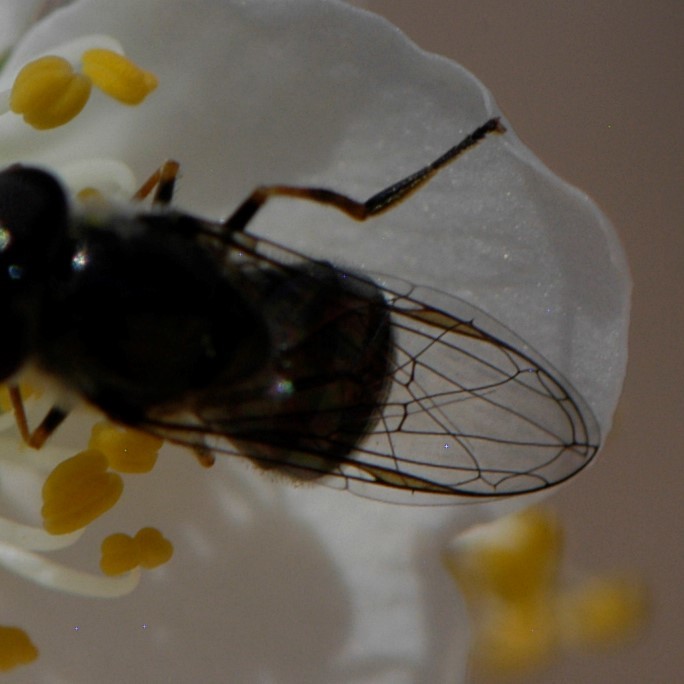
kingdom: Animalia
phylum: Arthropoda
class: Insecta
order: Diptera
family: Syrphidae
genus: Platycheirus
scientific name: Platycheirus
